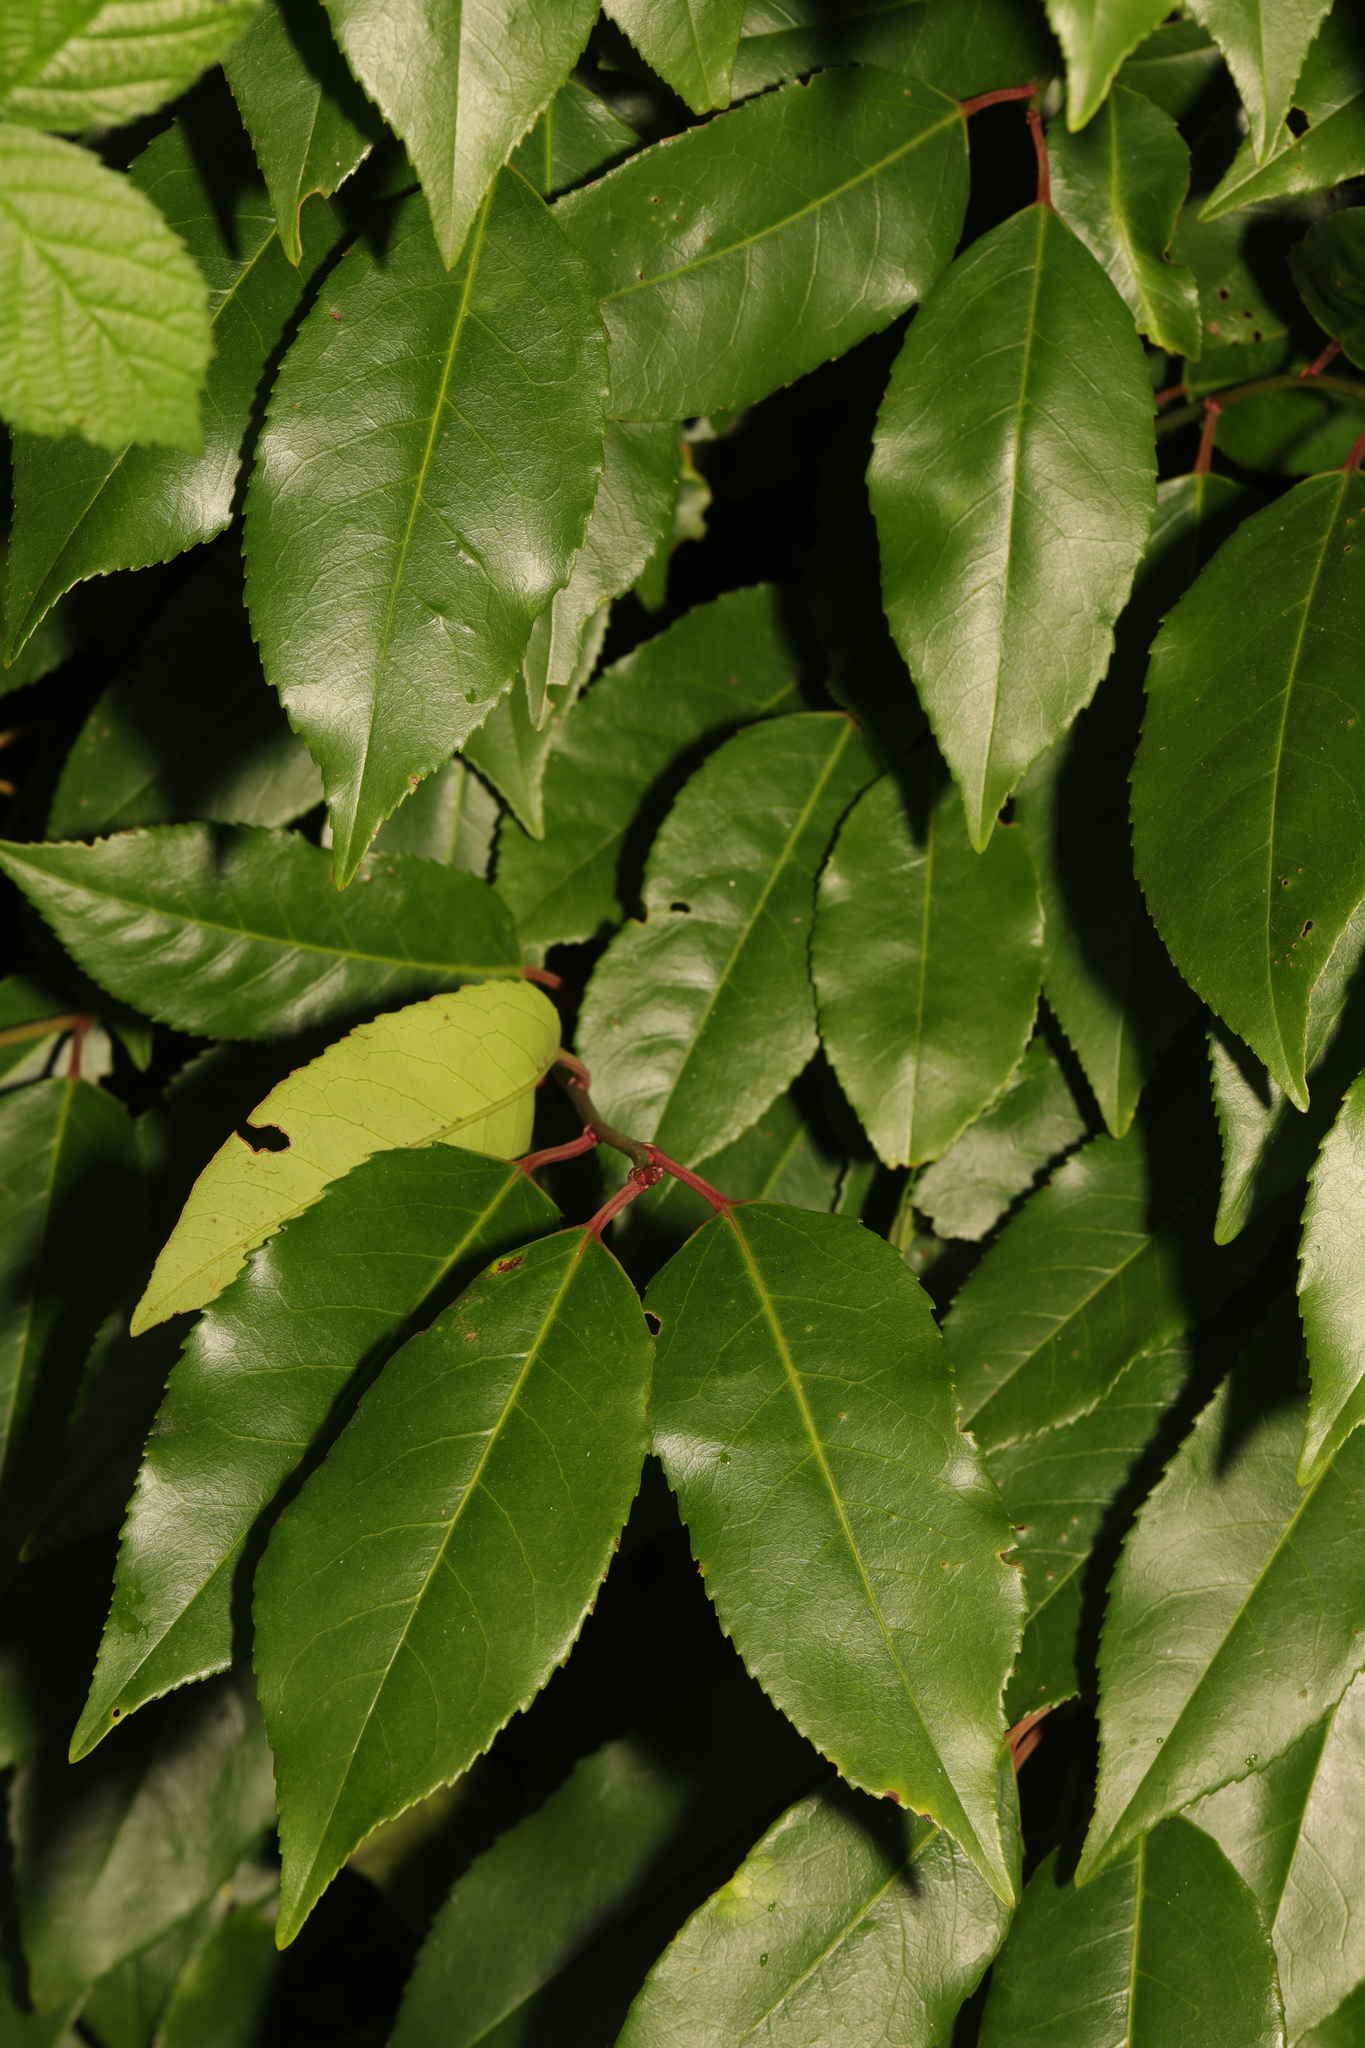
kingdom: Plantae
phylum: Tracheophyta
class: Magnoliopsida
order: Rosales
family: Rosaceae
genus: Prunus
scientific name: Prunus lusitanica
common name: Portugal laurel
